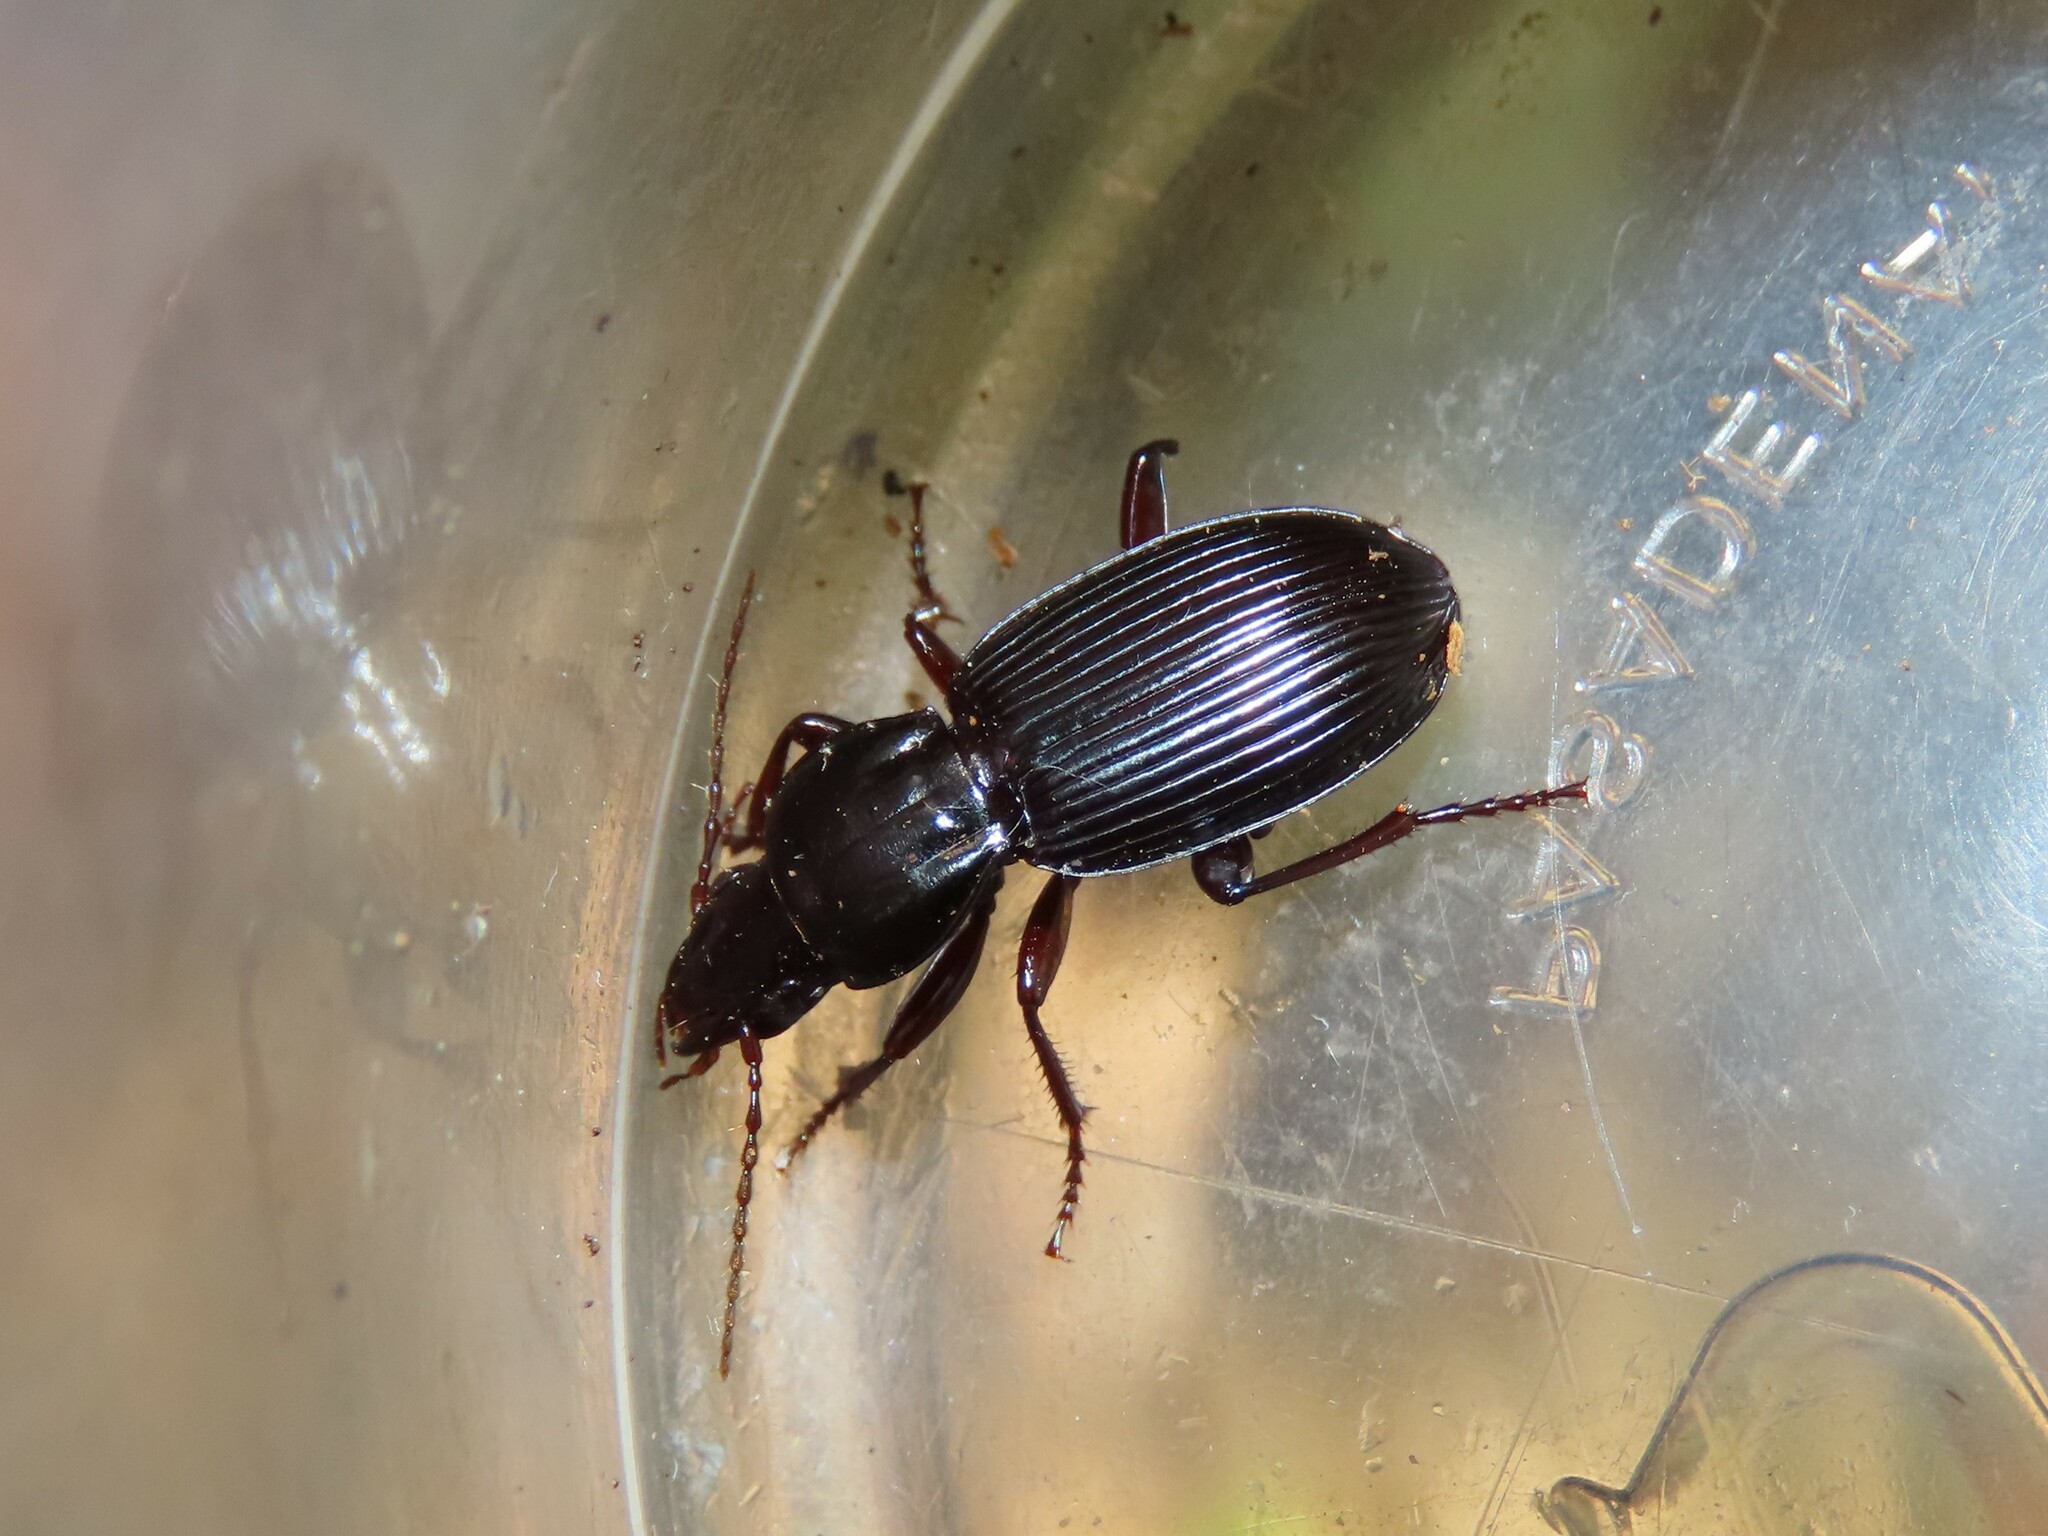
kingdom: Animalia
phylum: Arthropoda
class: Insecta
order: Coleoptera
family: Carabidae
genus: Pterostichus
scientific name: Pterostichus tristis
